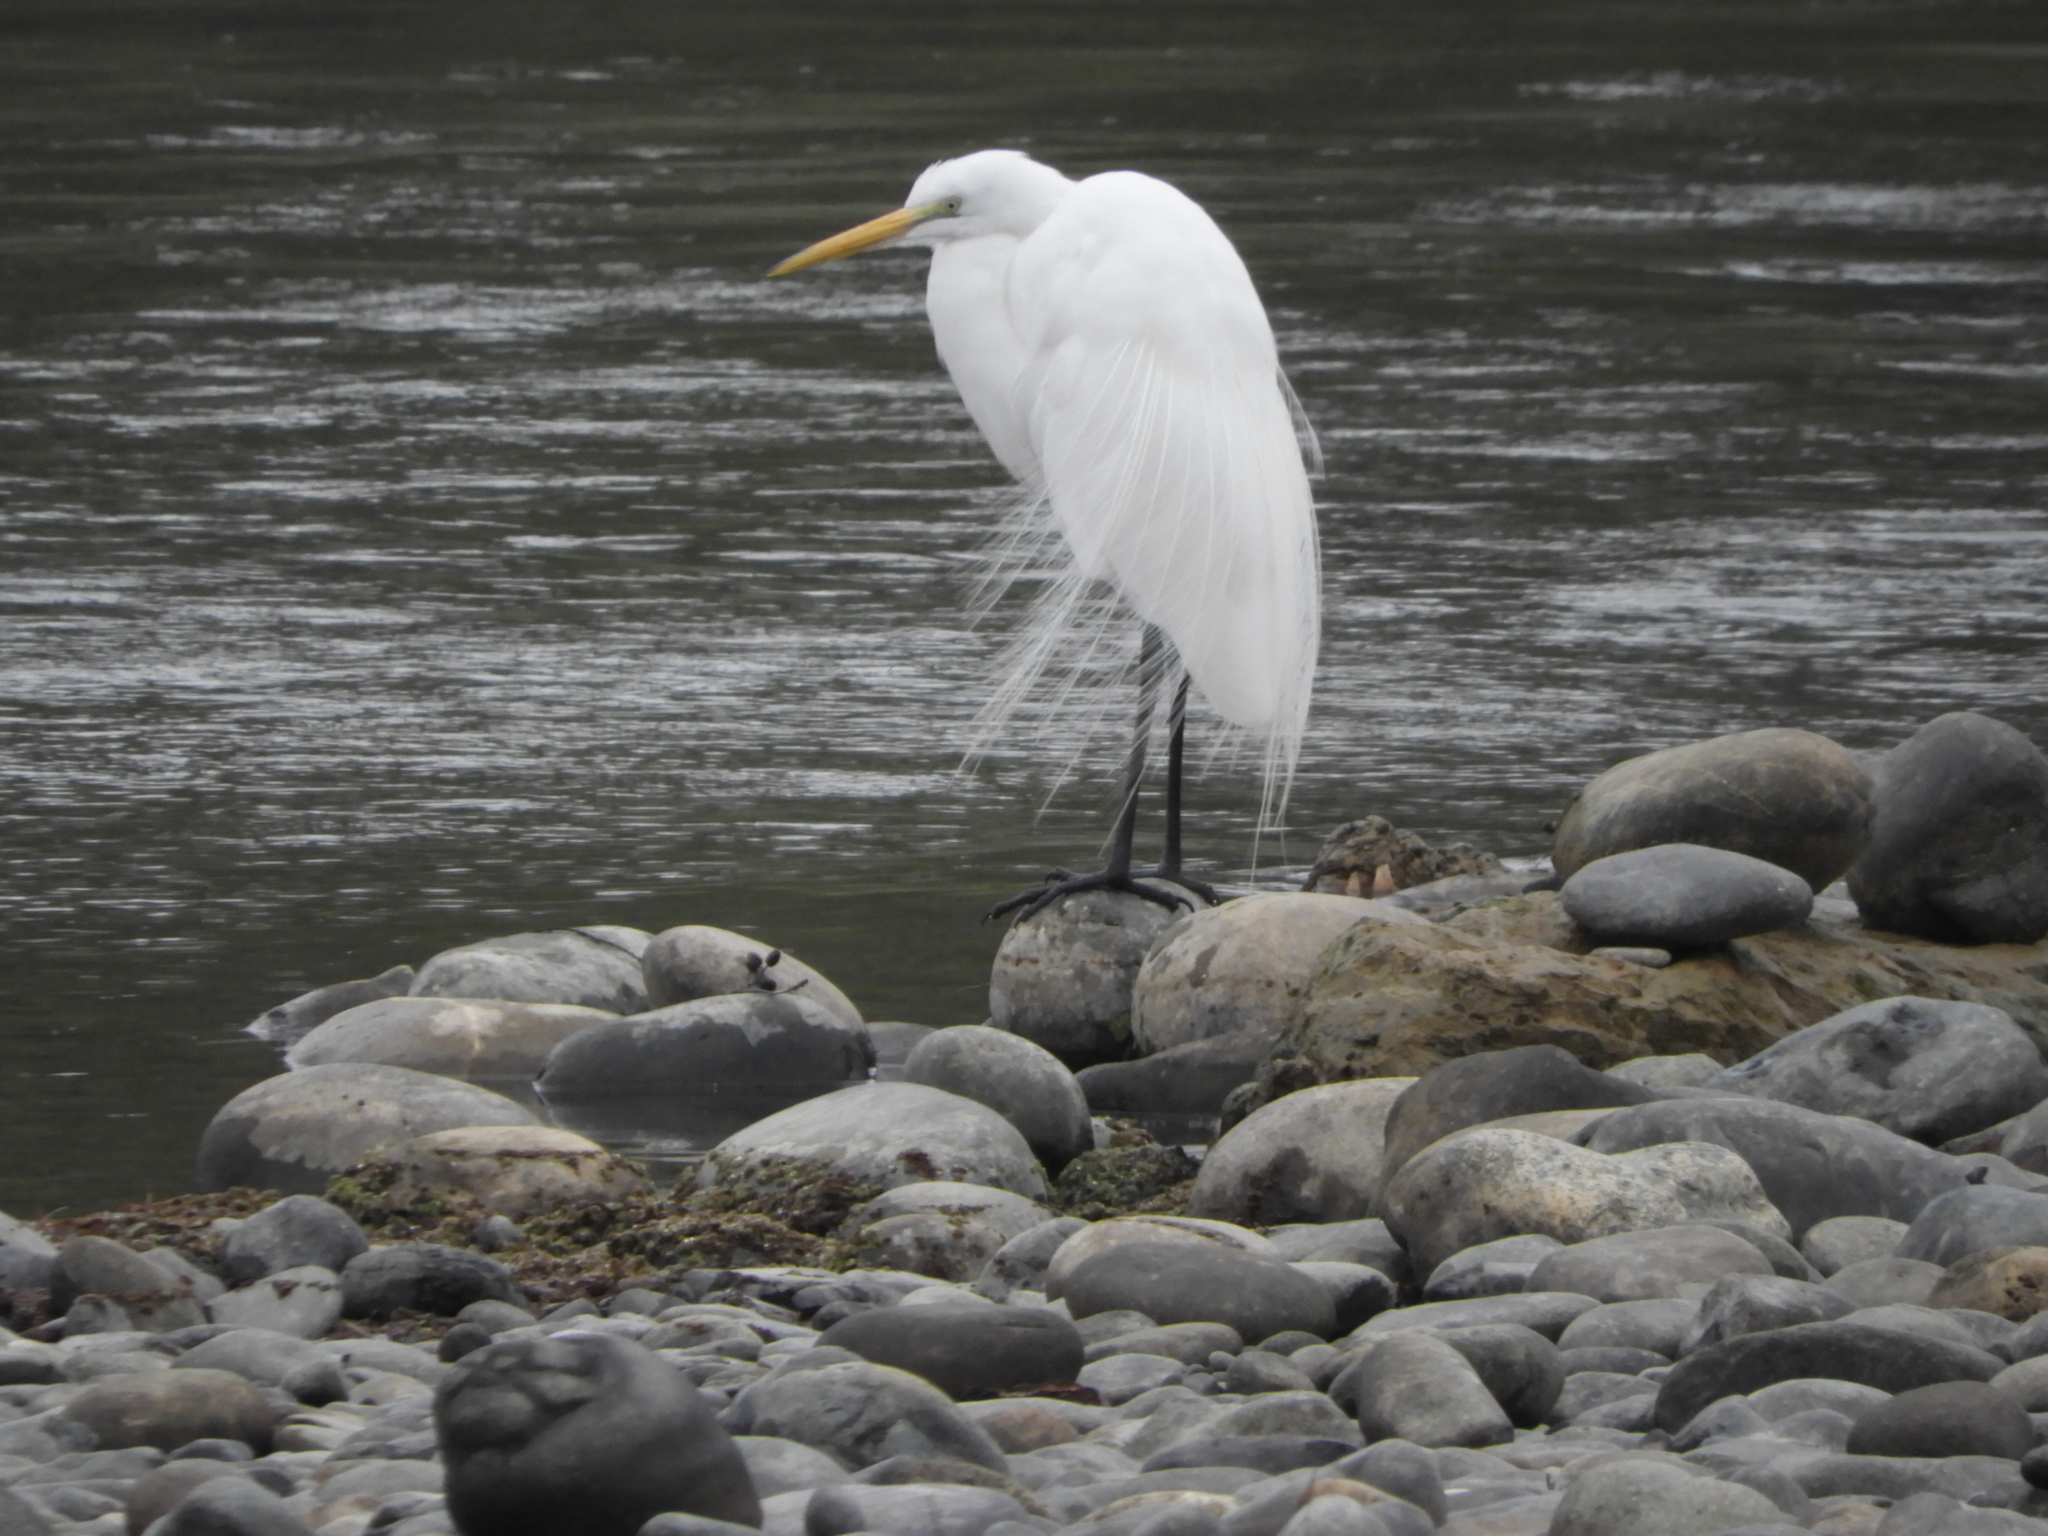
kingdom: Animalia
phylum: Chordata
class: Aves
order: Pelecaniformes
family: Ardeidae
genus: Ardea
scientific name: Ardea alba
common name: Great egret
